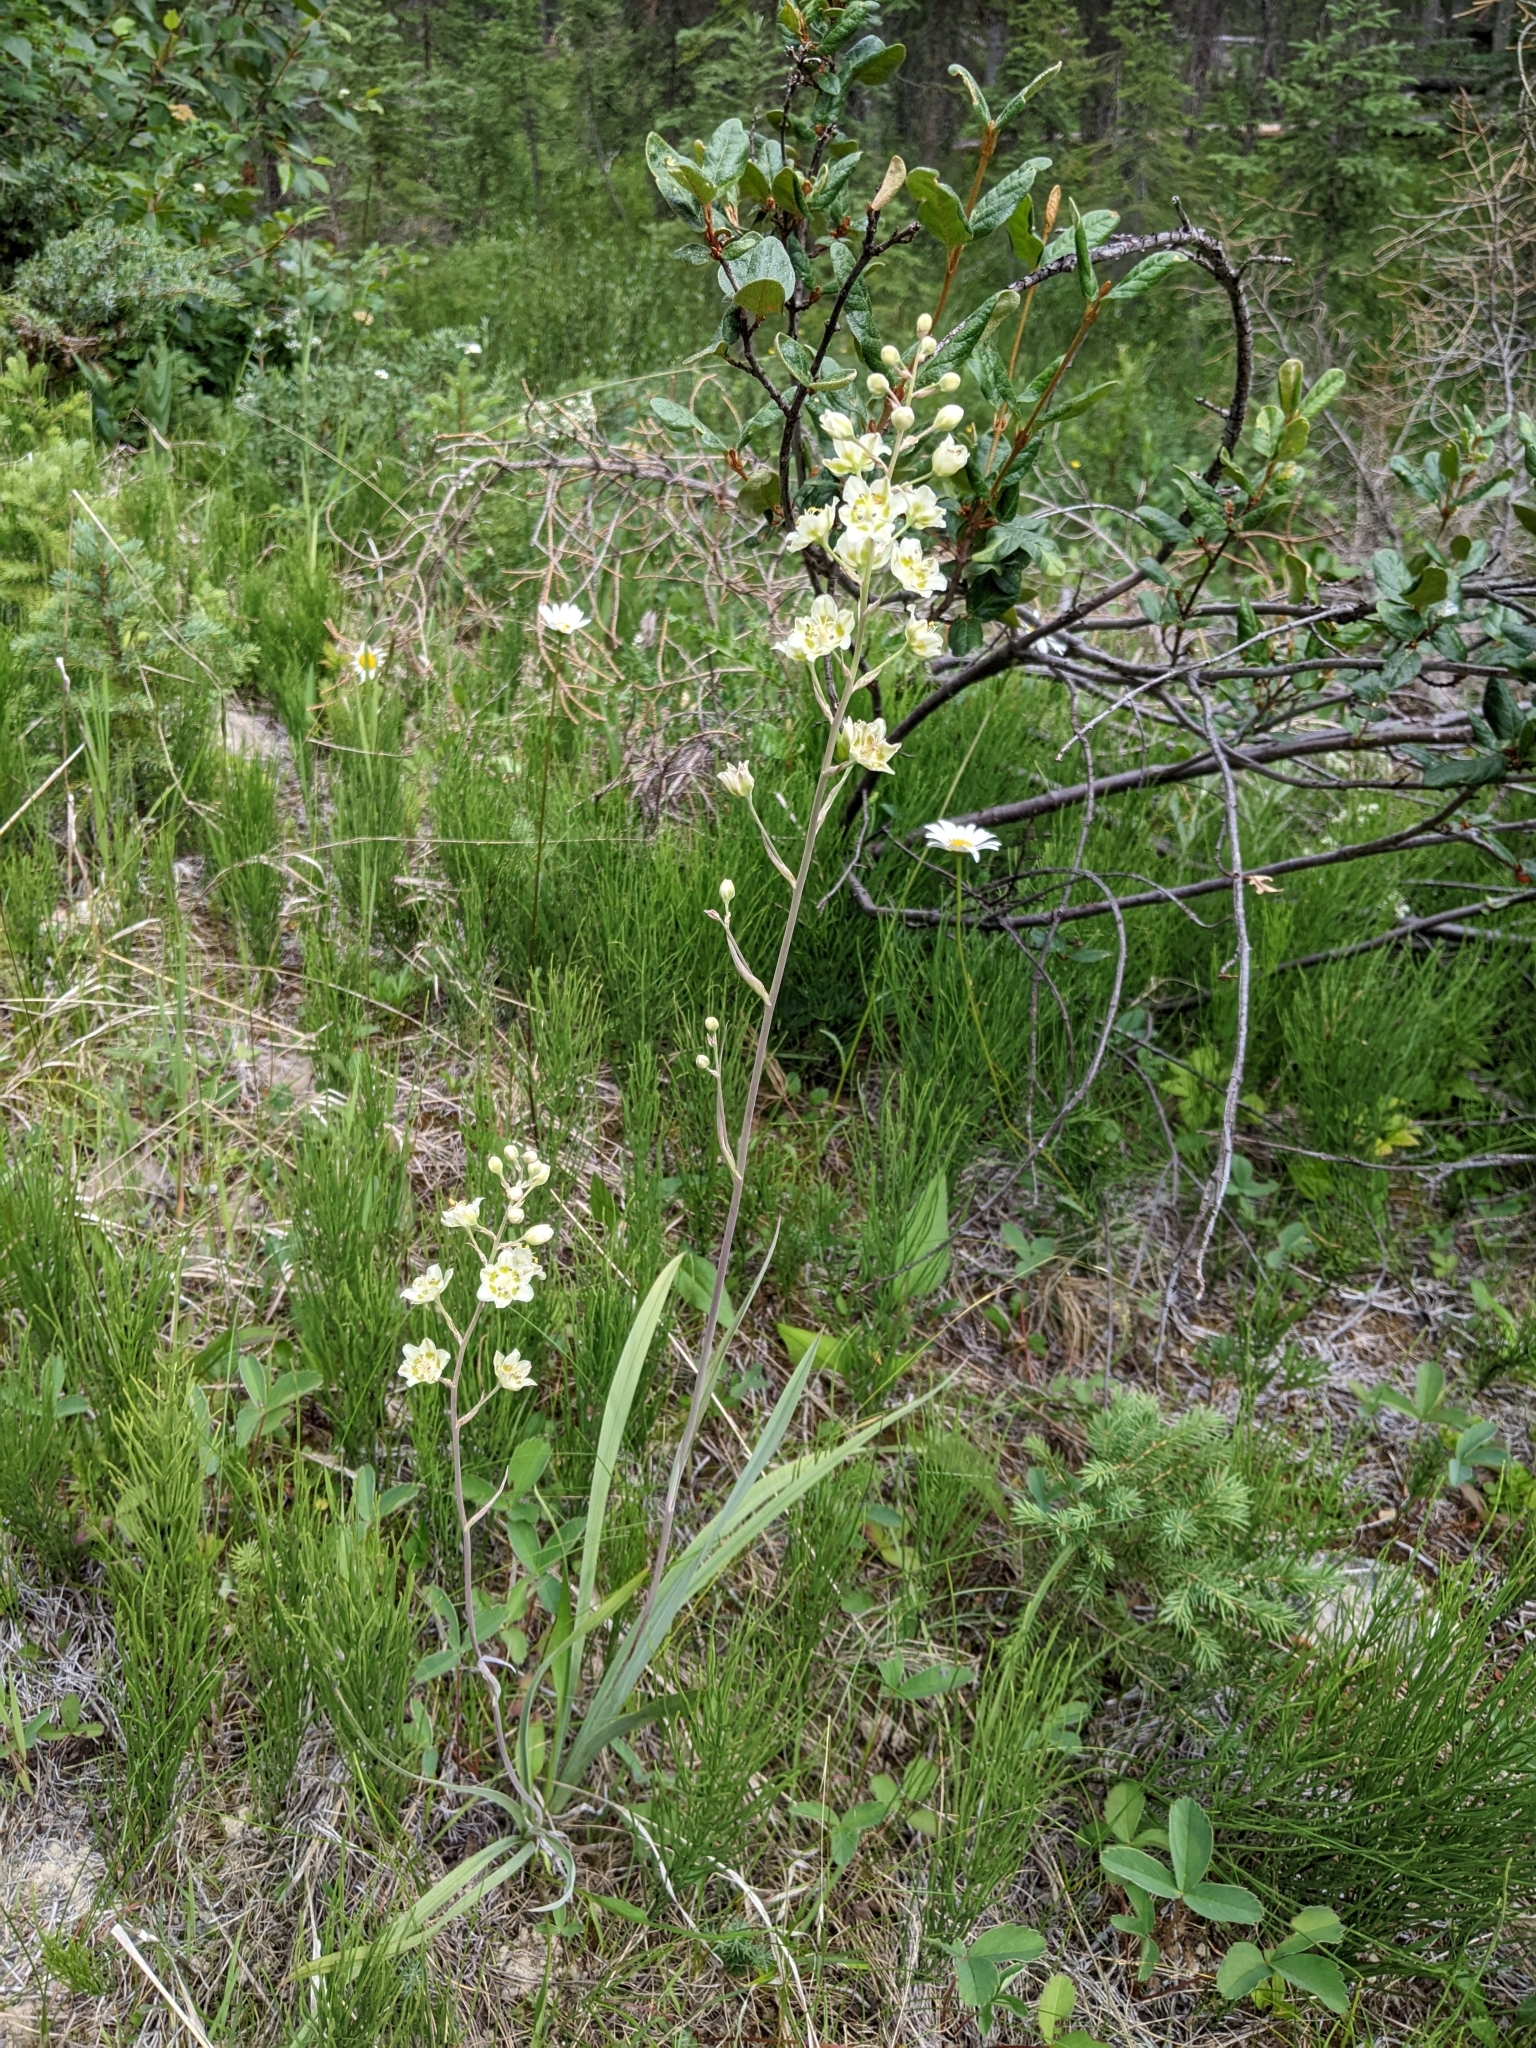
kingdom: Plantae
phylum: Tracheophyta
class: Liliopsida
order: Liliales
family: Melanthiaceae
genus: Anticlea
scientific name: Anticlea elegans
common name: Mountain death camas
